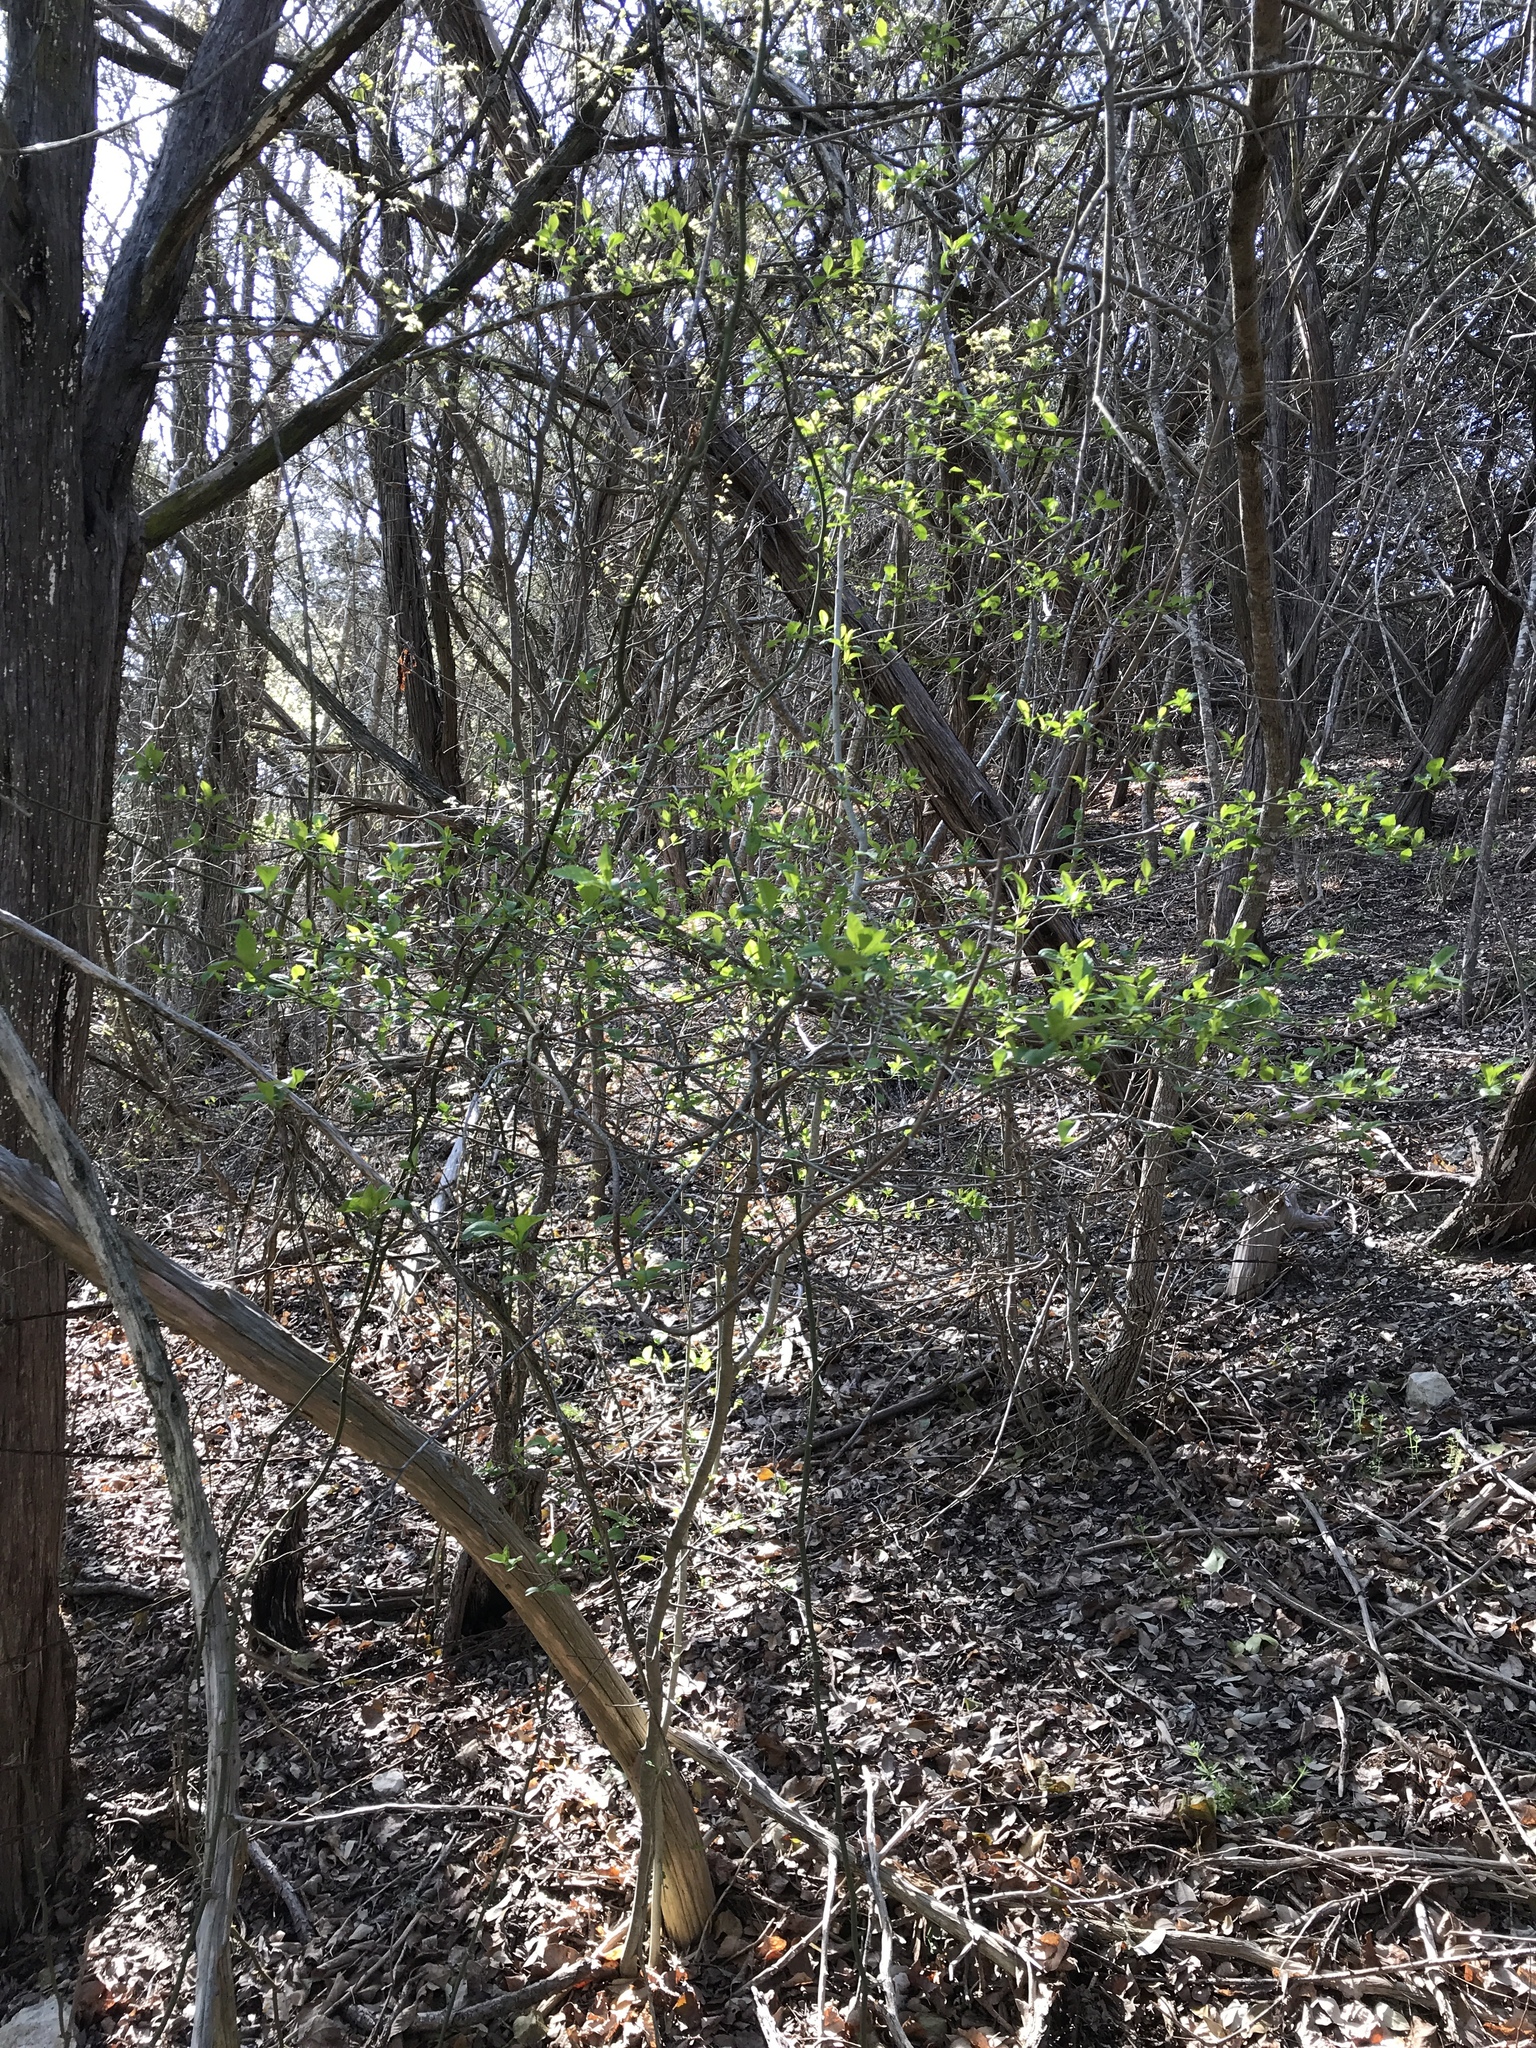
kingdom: Plantae
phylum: Tracheophyta
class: Magnoliopsida
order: Aquifoliales
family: Aquifoliaceae
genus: Ilex
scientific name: Ilex decidua
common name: Possum-haw
